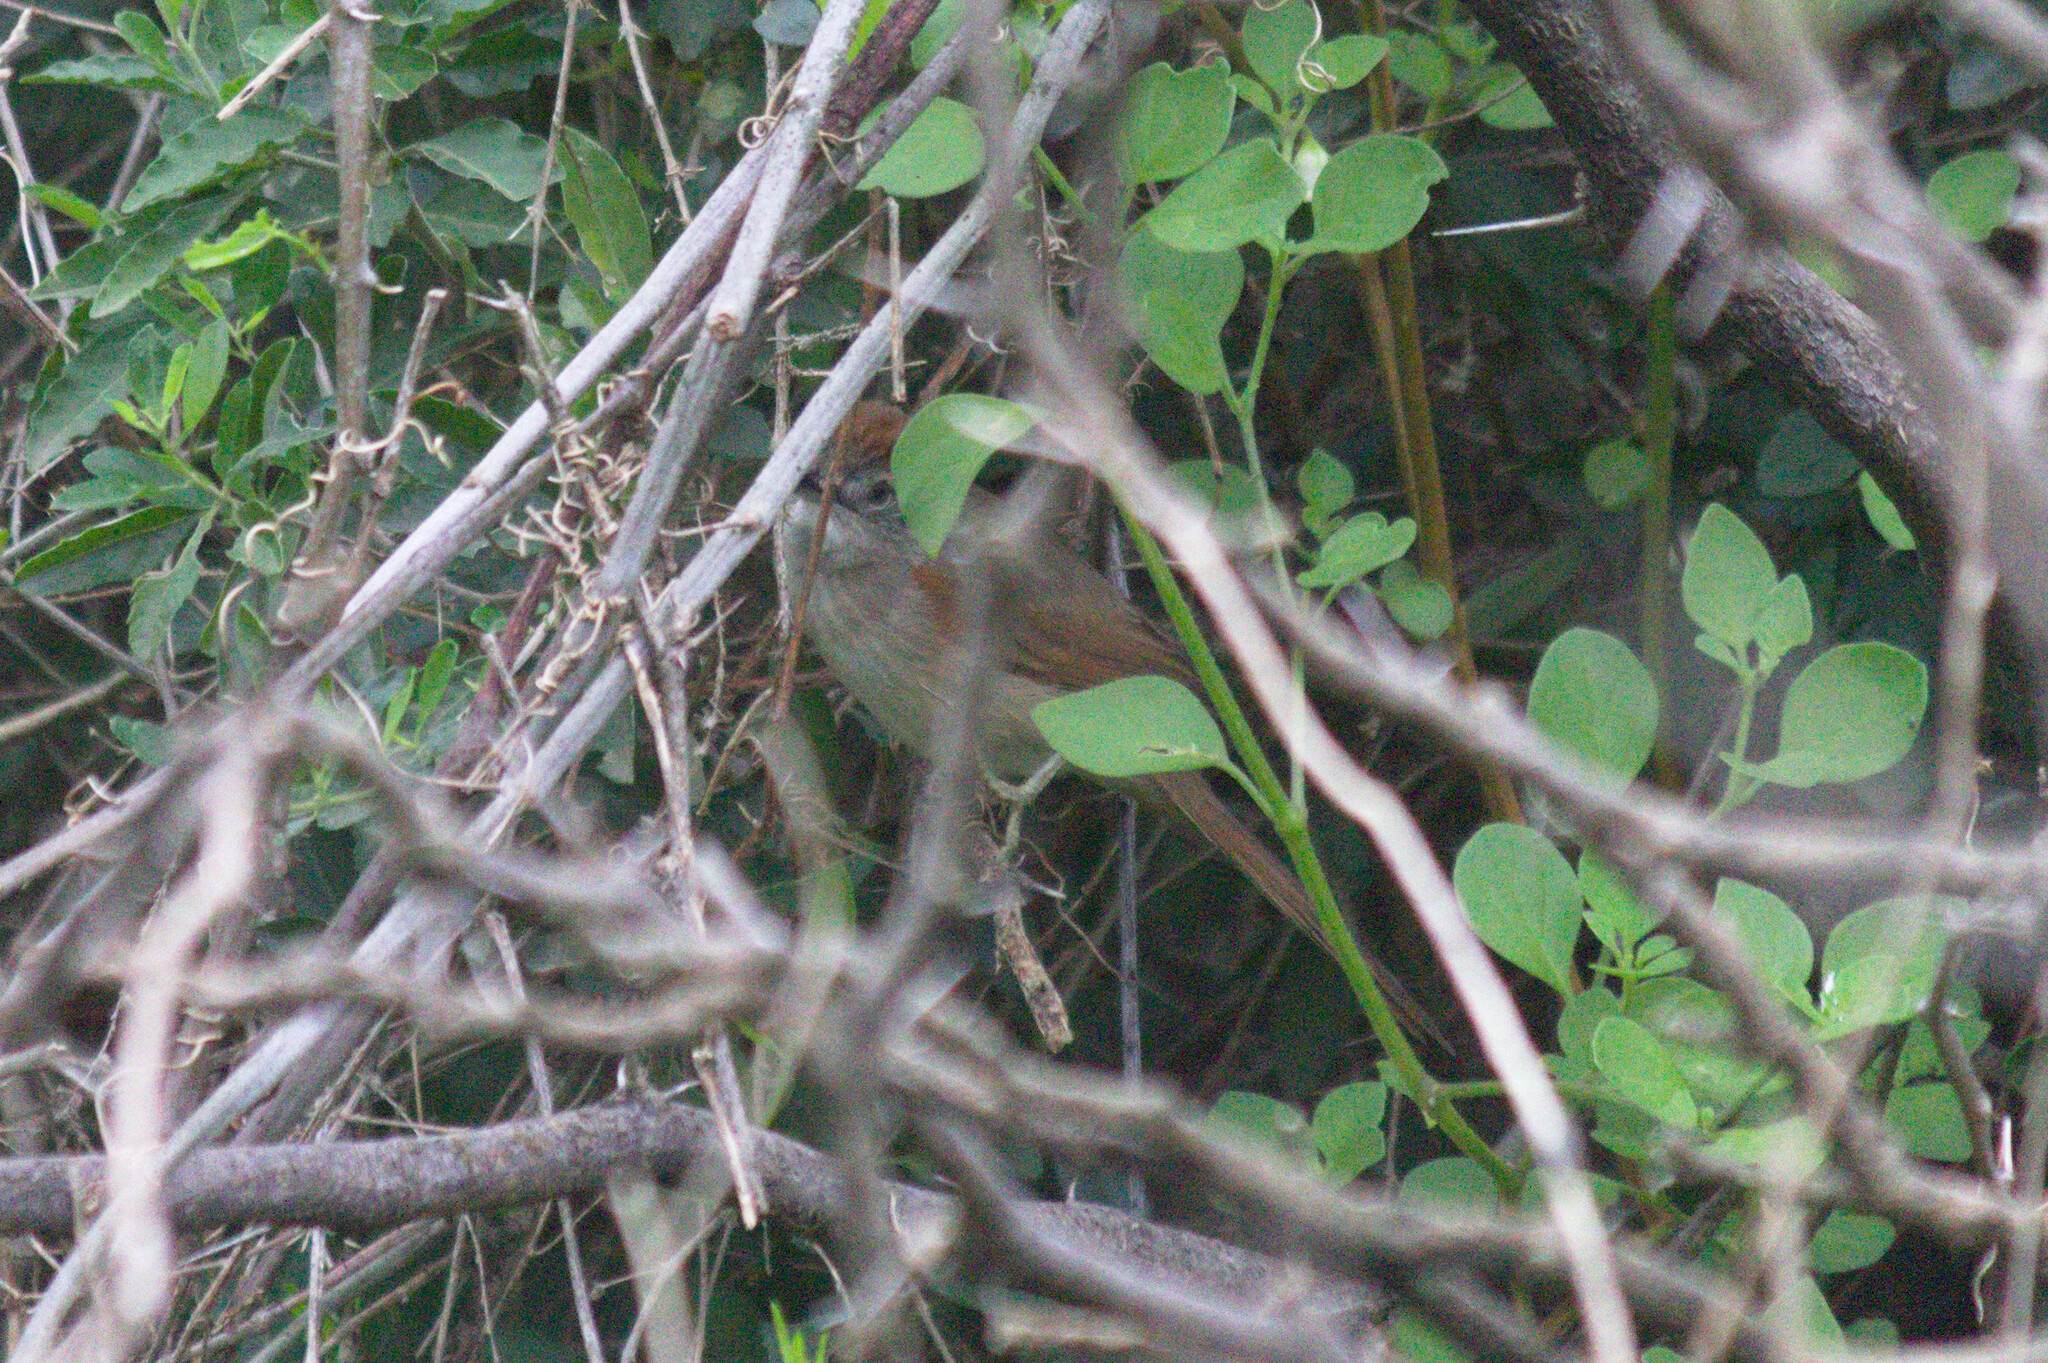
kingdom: Animalia
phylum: Chordata
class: Aves
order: Passeriformes
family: Furnariidae
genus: Synallaxis
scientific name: Synallaxis albescens
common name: Pale-breasted spinetail
